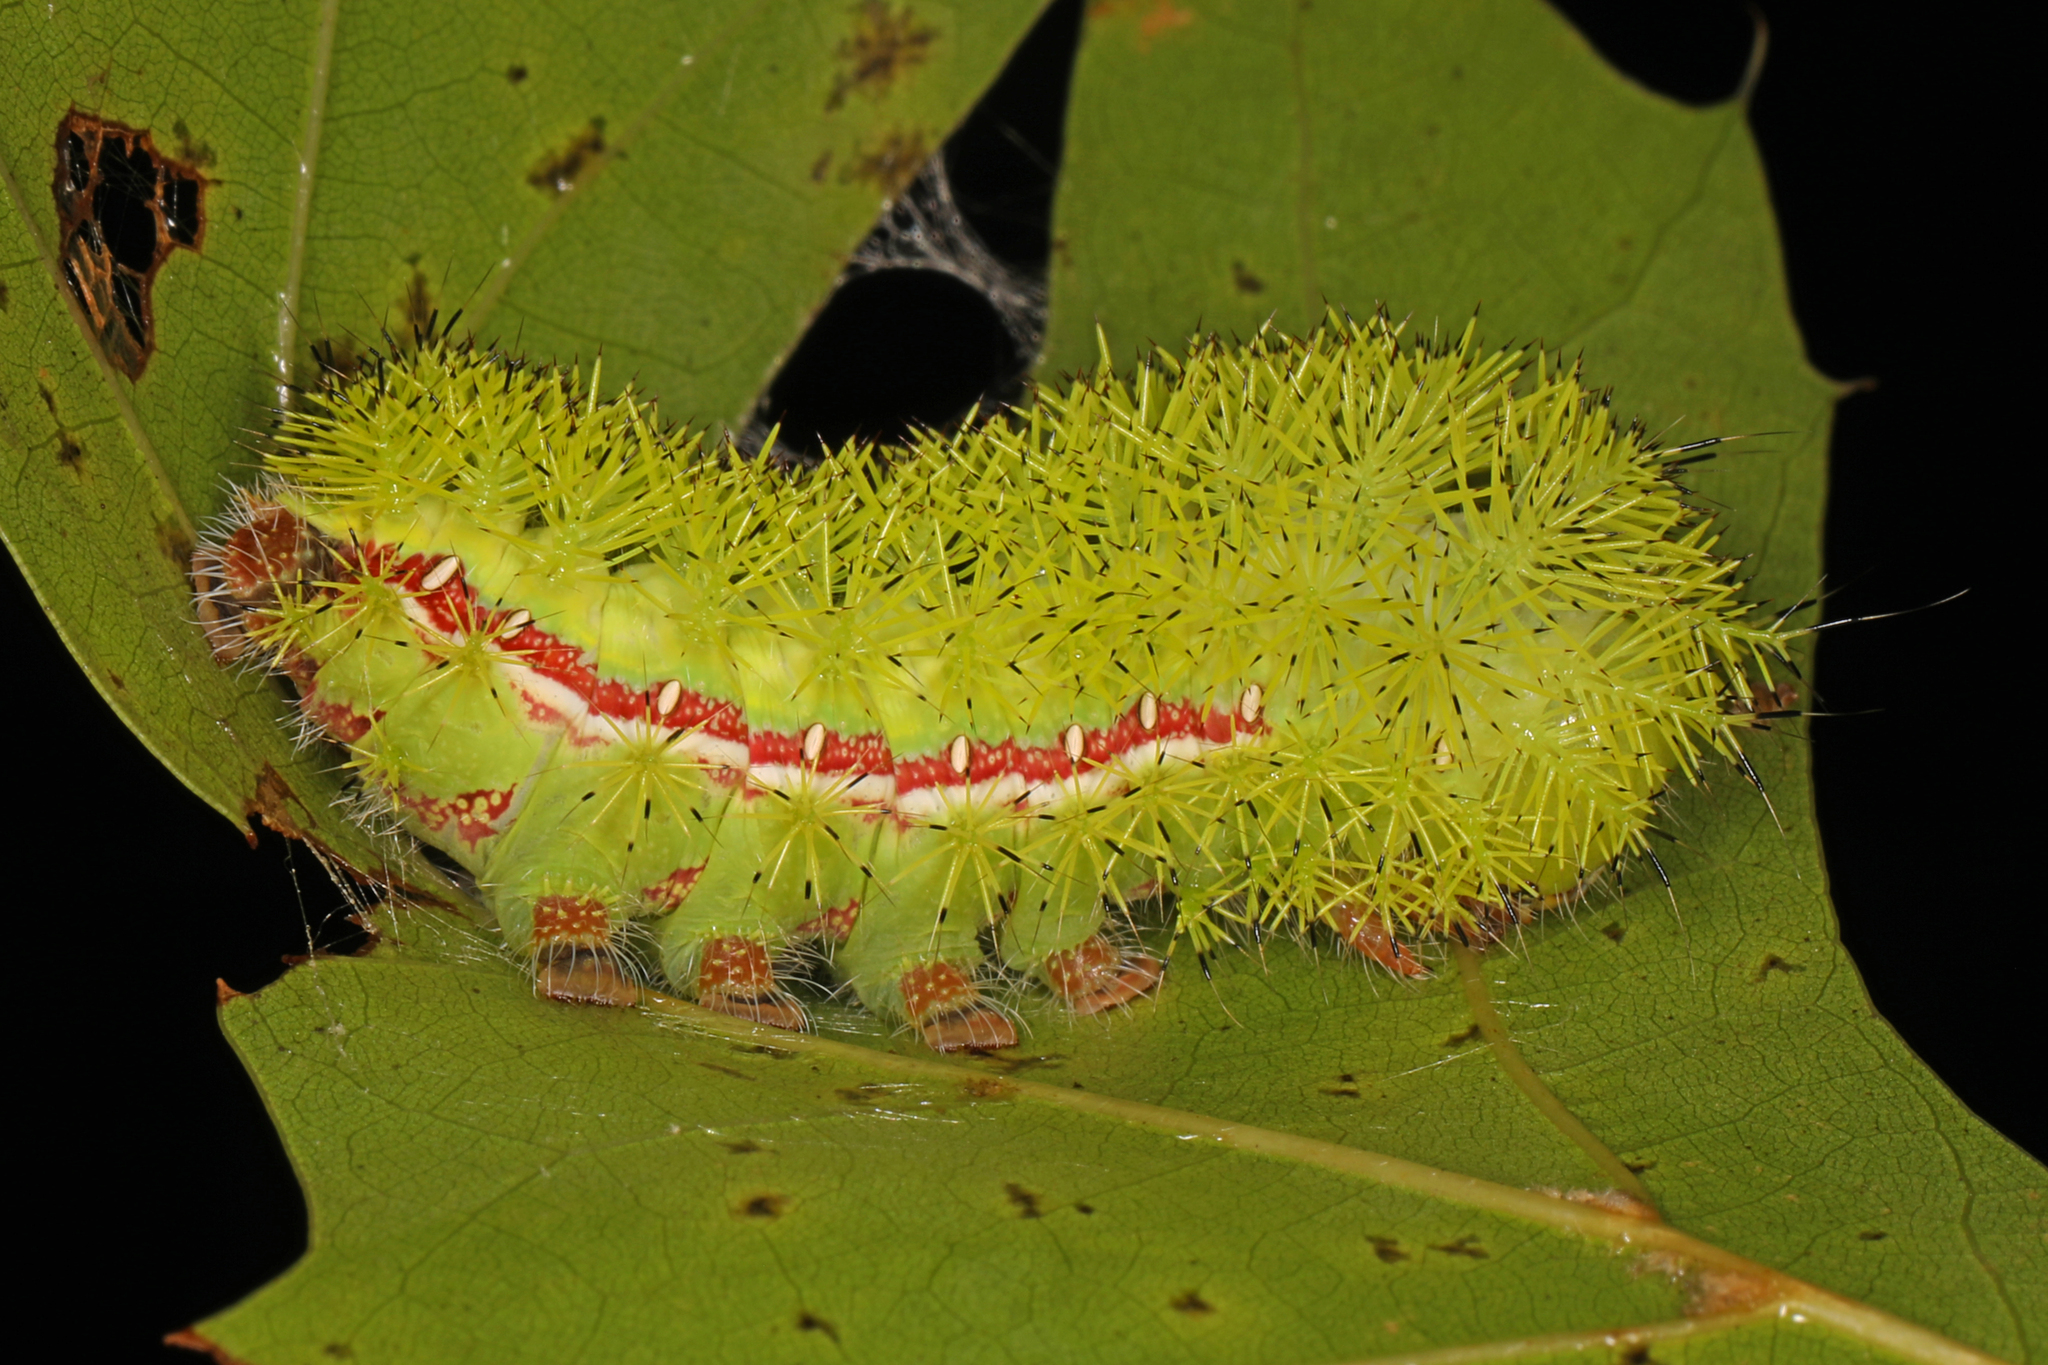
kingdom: Animalia
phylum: Arthropoda
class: Insecta
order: Lepidoptera
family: Saturniidae
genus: Automeris
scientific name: Automeris io
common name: Io moth
